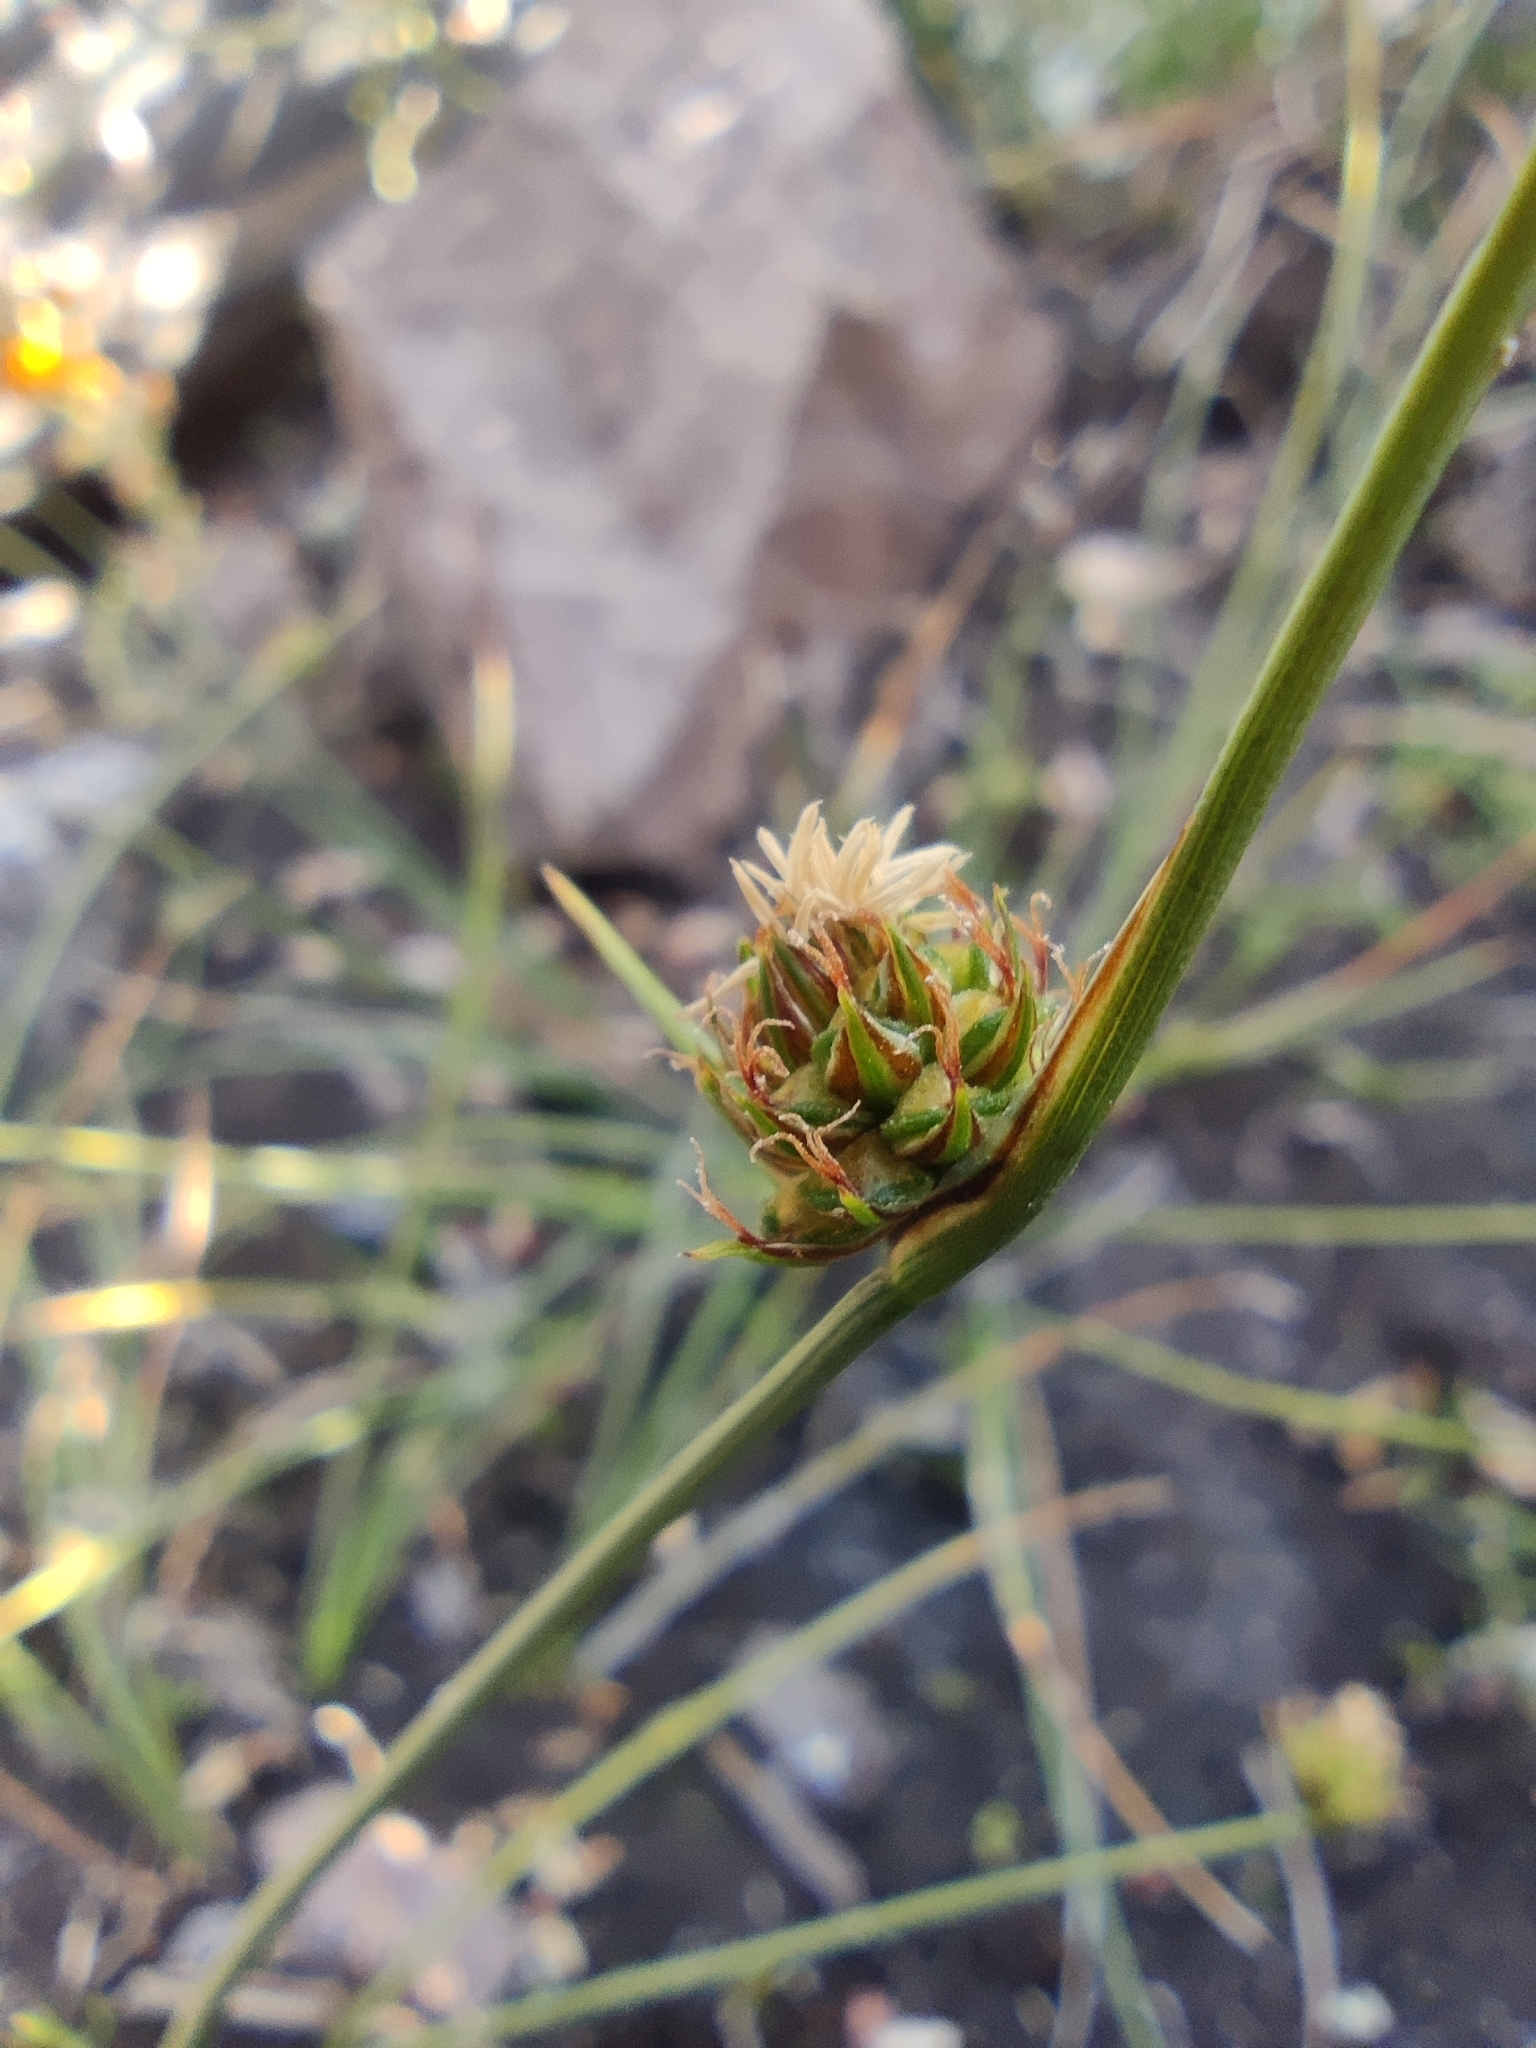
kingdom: Plantae
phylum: Tracheophyta
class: Liliopsida
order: Poales
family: Cyperaceae
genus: Carex
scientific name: Carex andina
